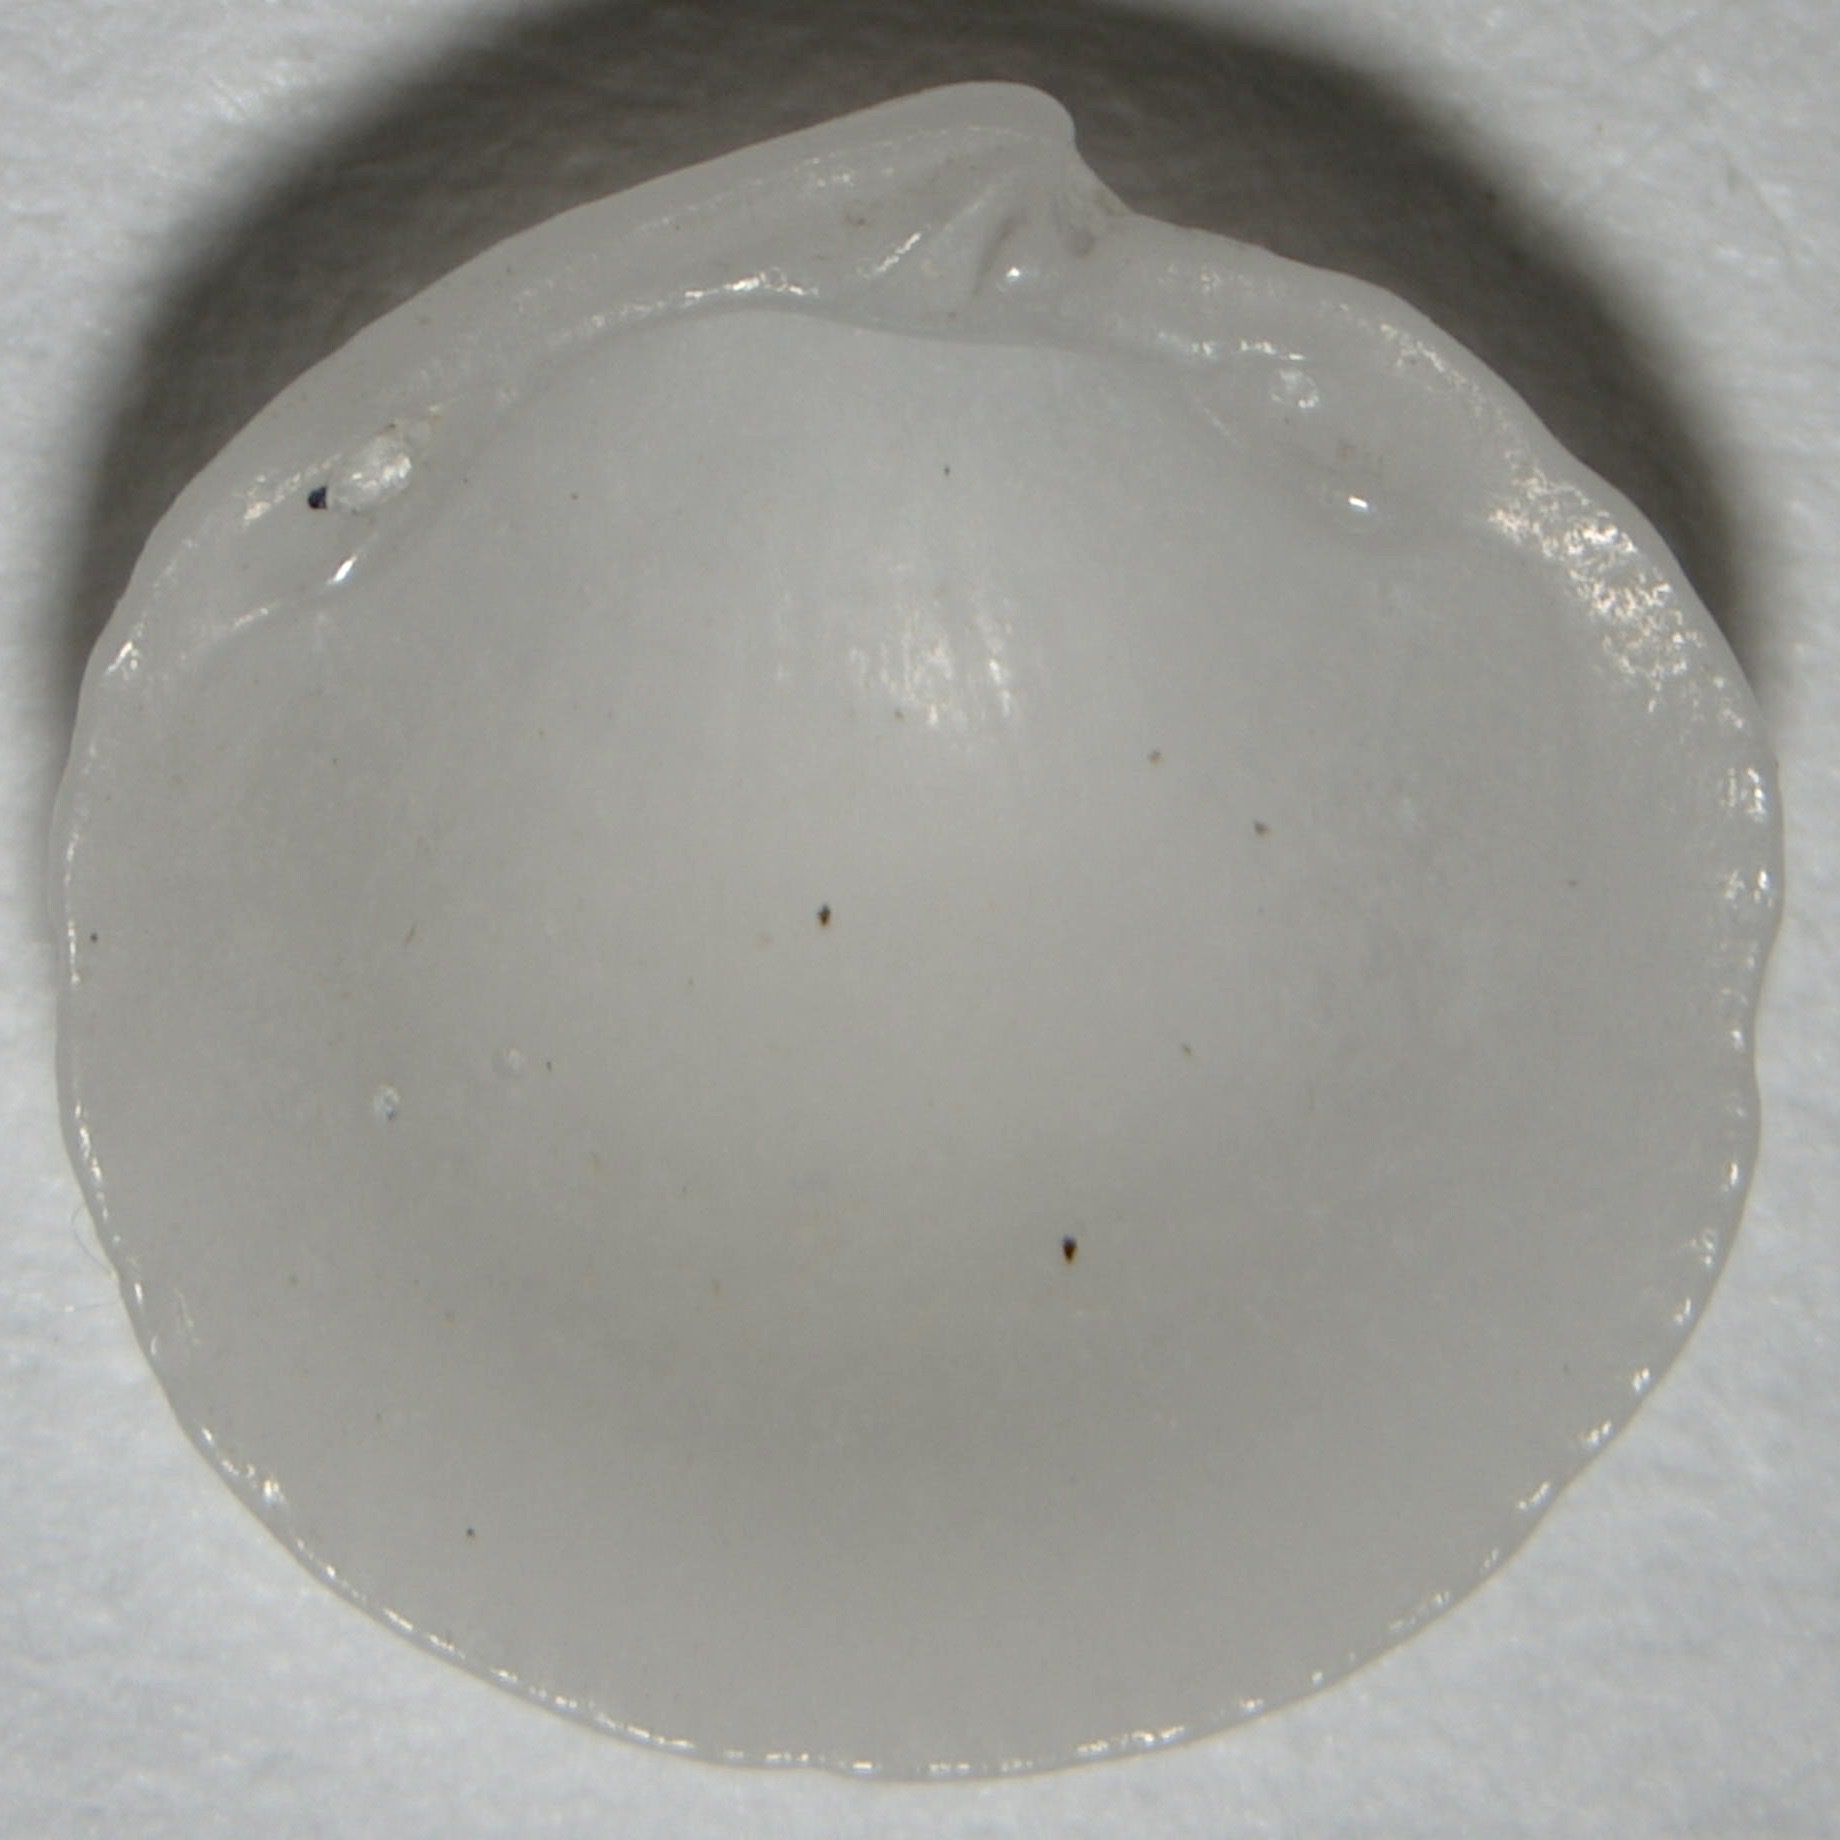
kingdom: Animalia
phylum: Mollusca
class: Bivalvia
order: Lucinida
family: Lucinidae
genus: Lucinisca
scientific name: Lucinisca nassula
